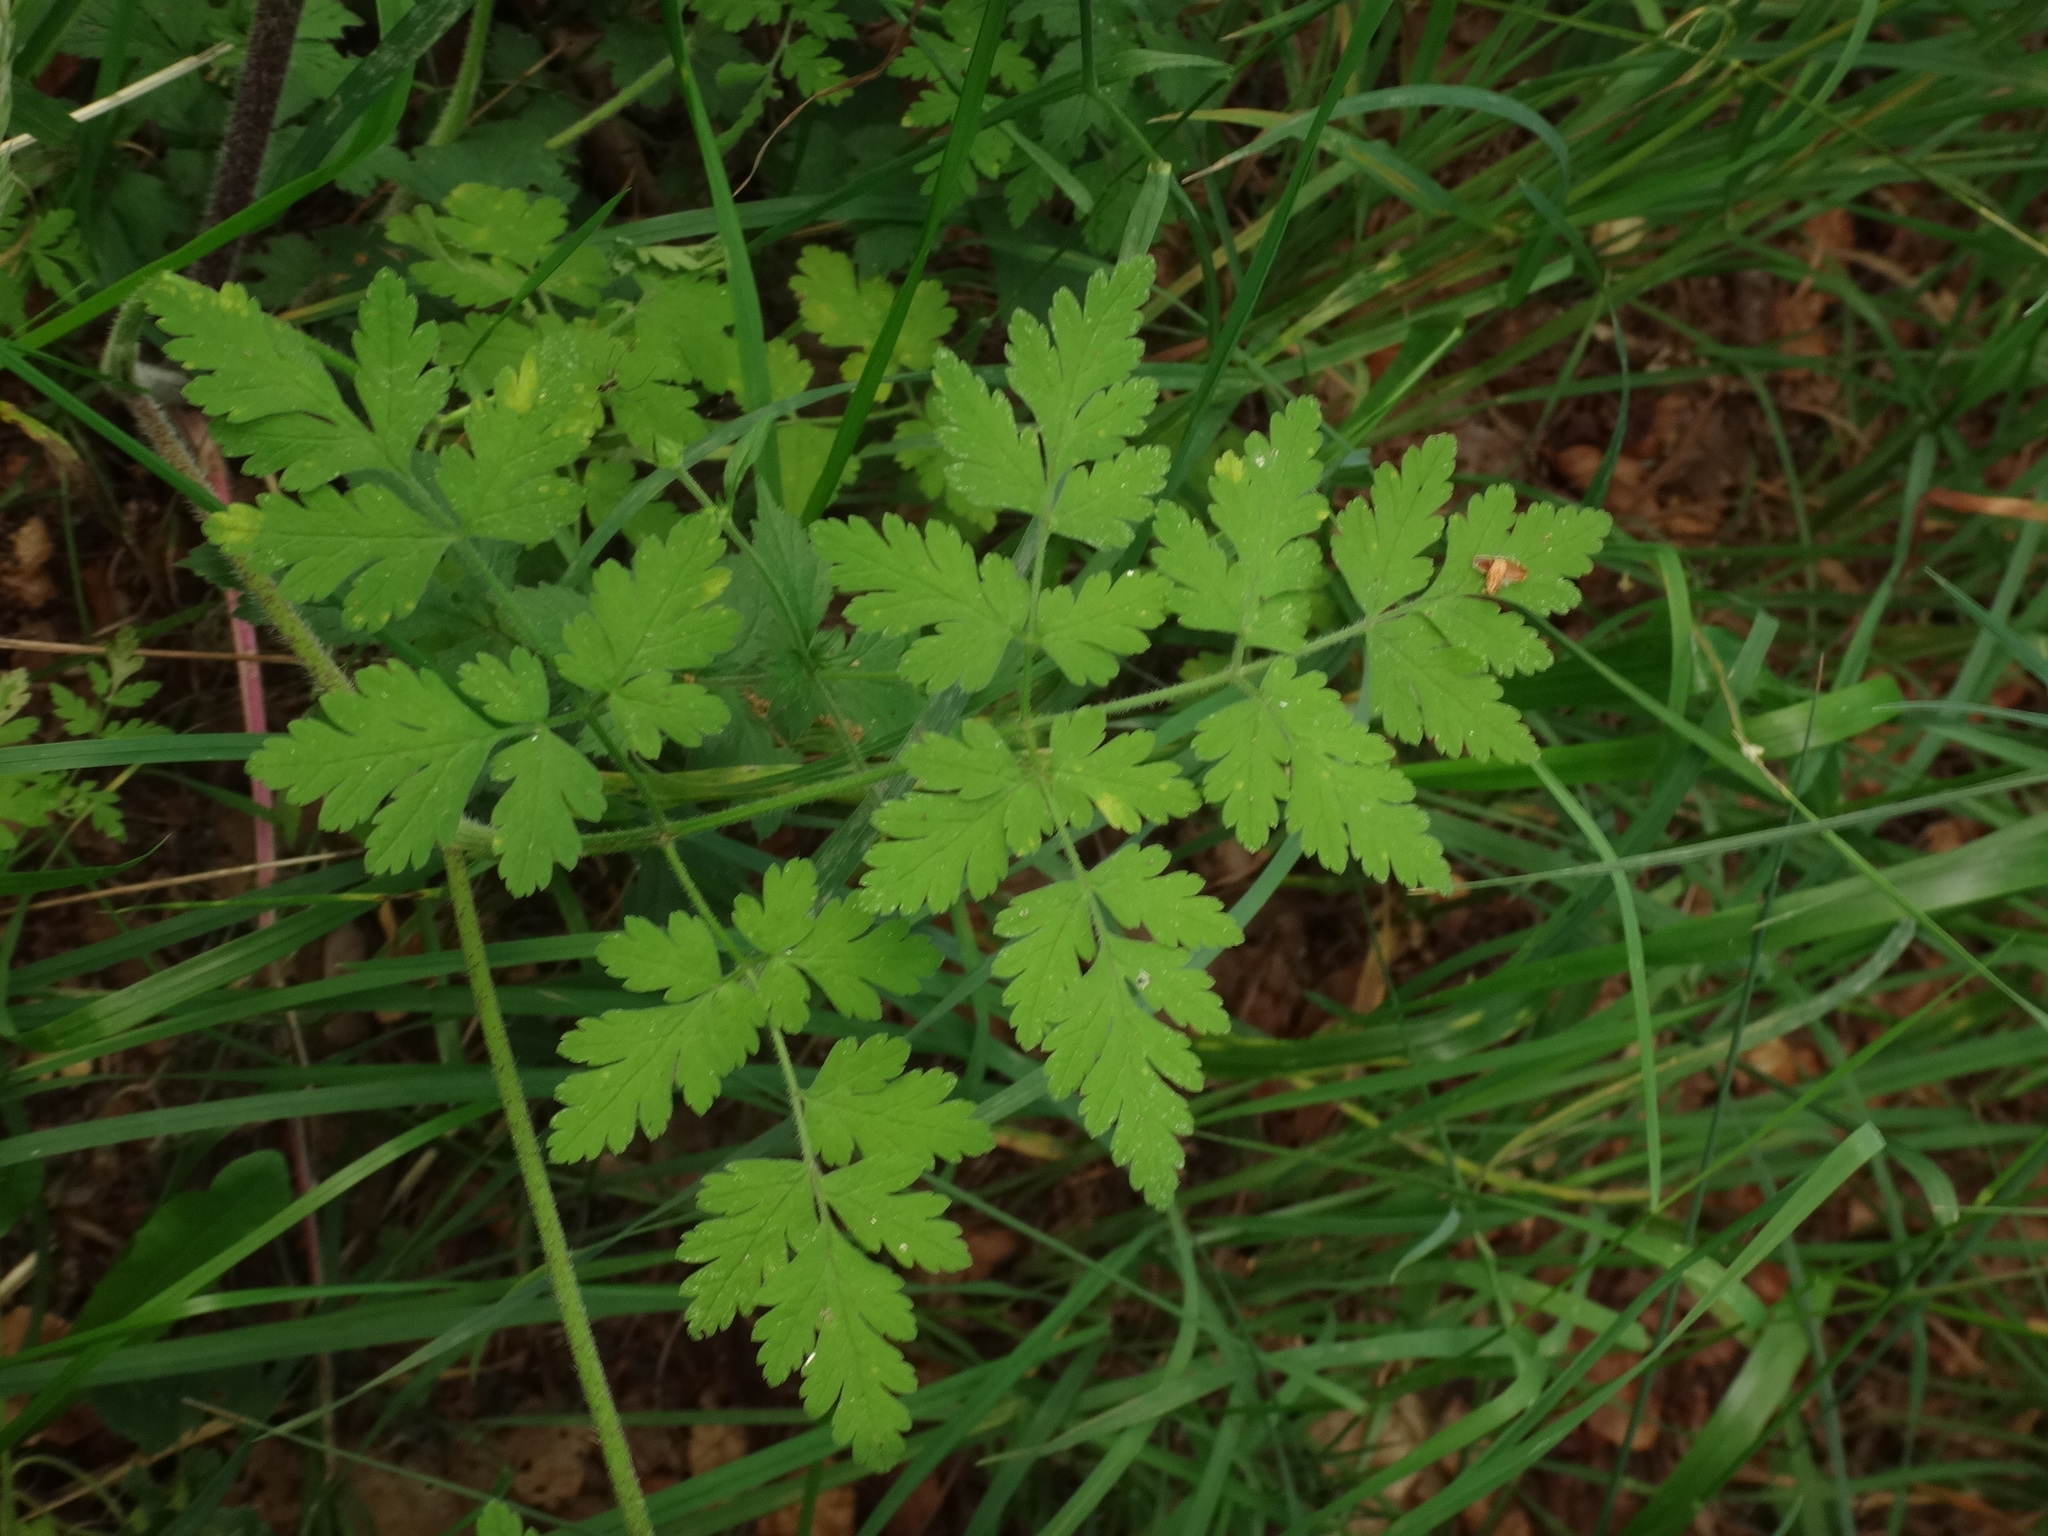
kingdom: Plantae
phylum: Tracheophyta
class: Magnoliopsida
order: Apiales
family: Apiaceae
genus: Chaerophyllum
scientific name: Chaerophyllum temulum
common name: Rough chervil
